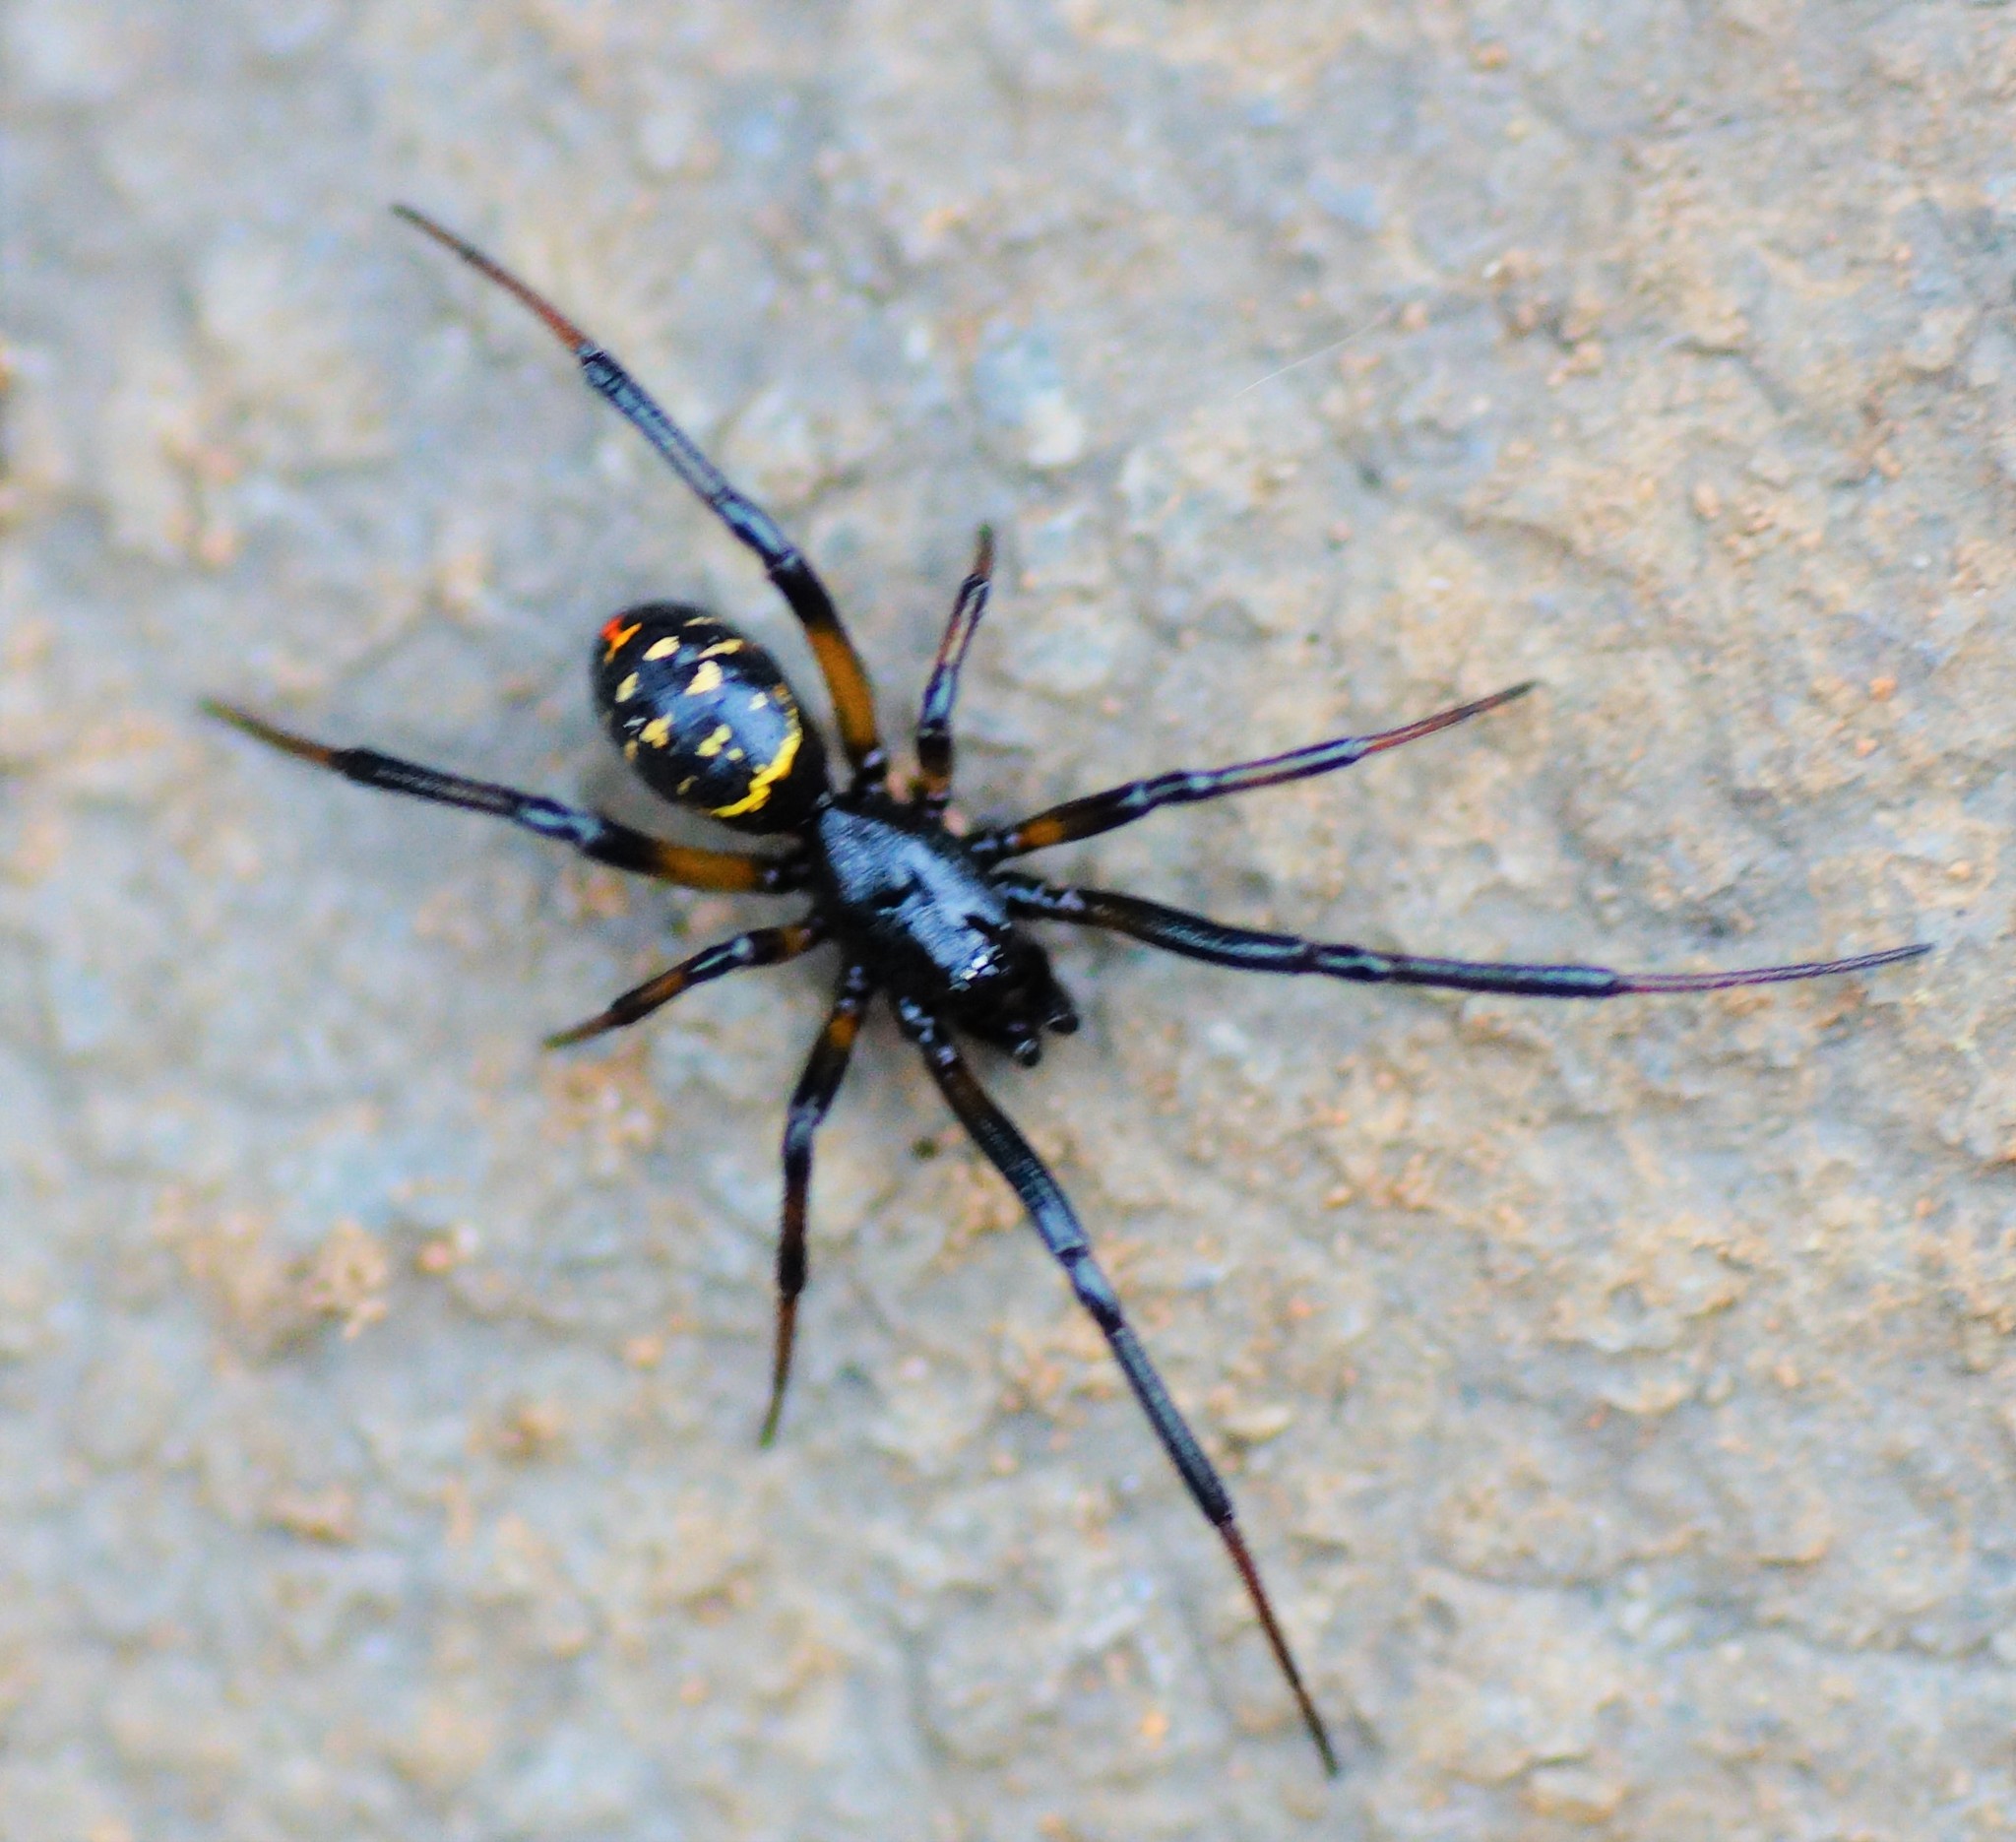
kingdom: Animalia
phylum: Arthropoda
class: Arachnida
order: Araneae
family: Theridiidae
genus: Steatoda
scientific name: Steatoda capensis
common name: Cobweb weaver
